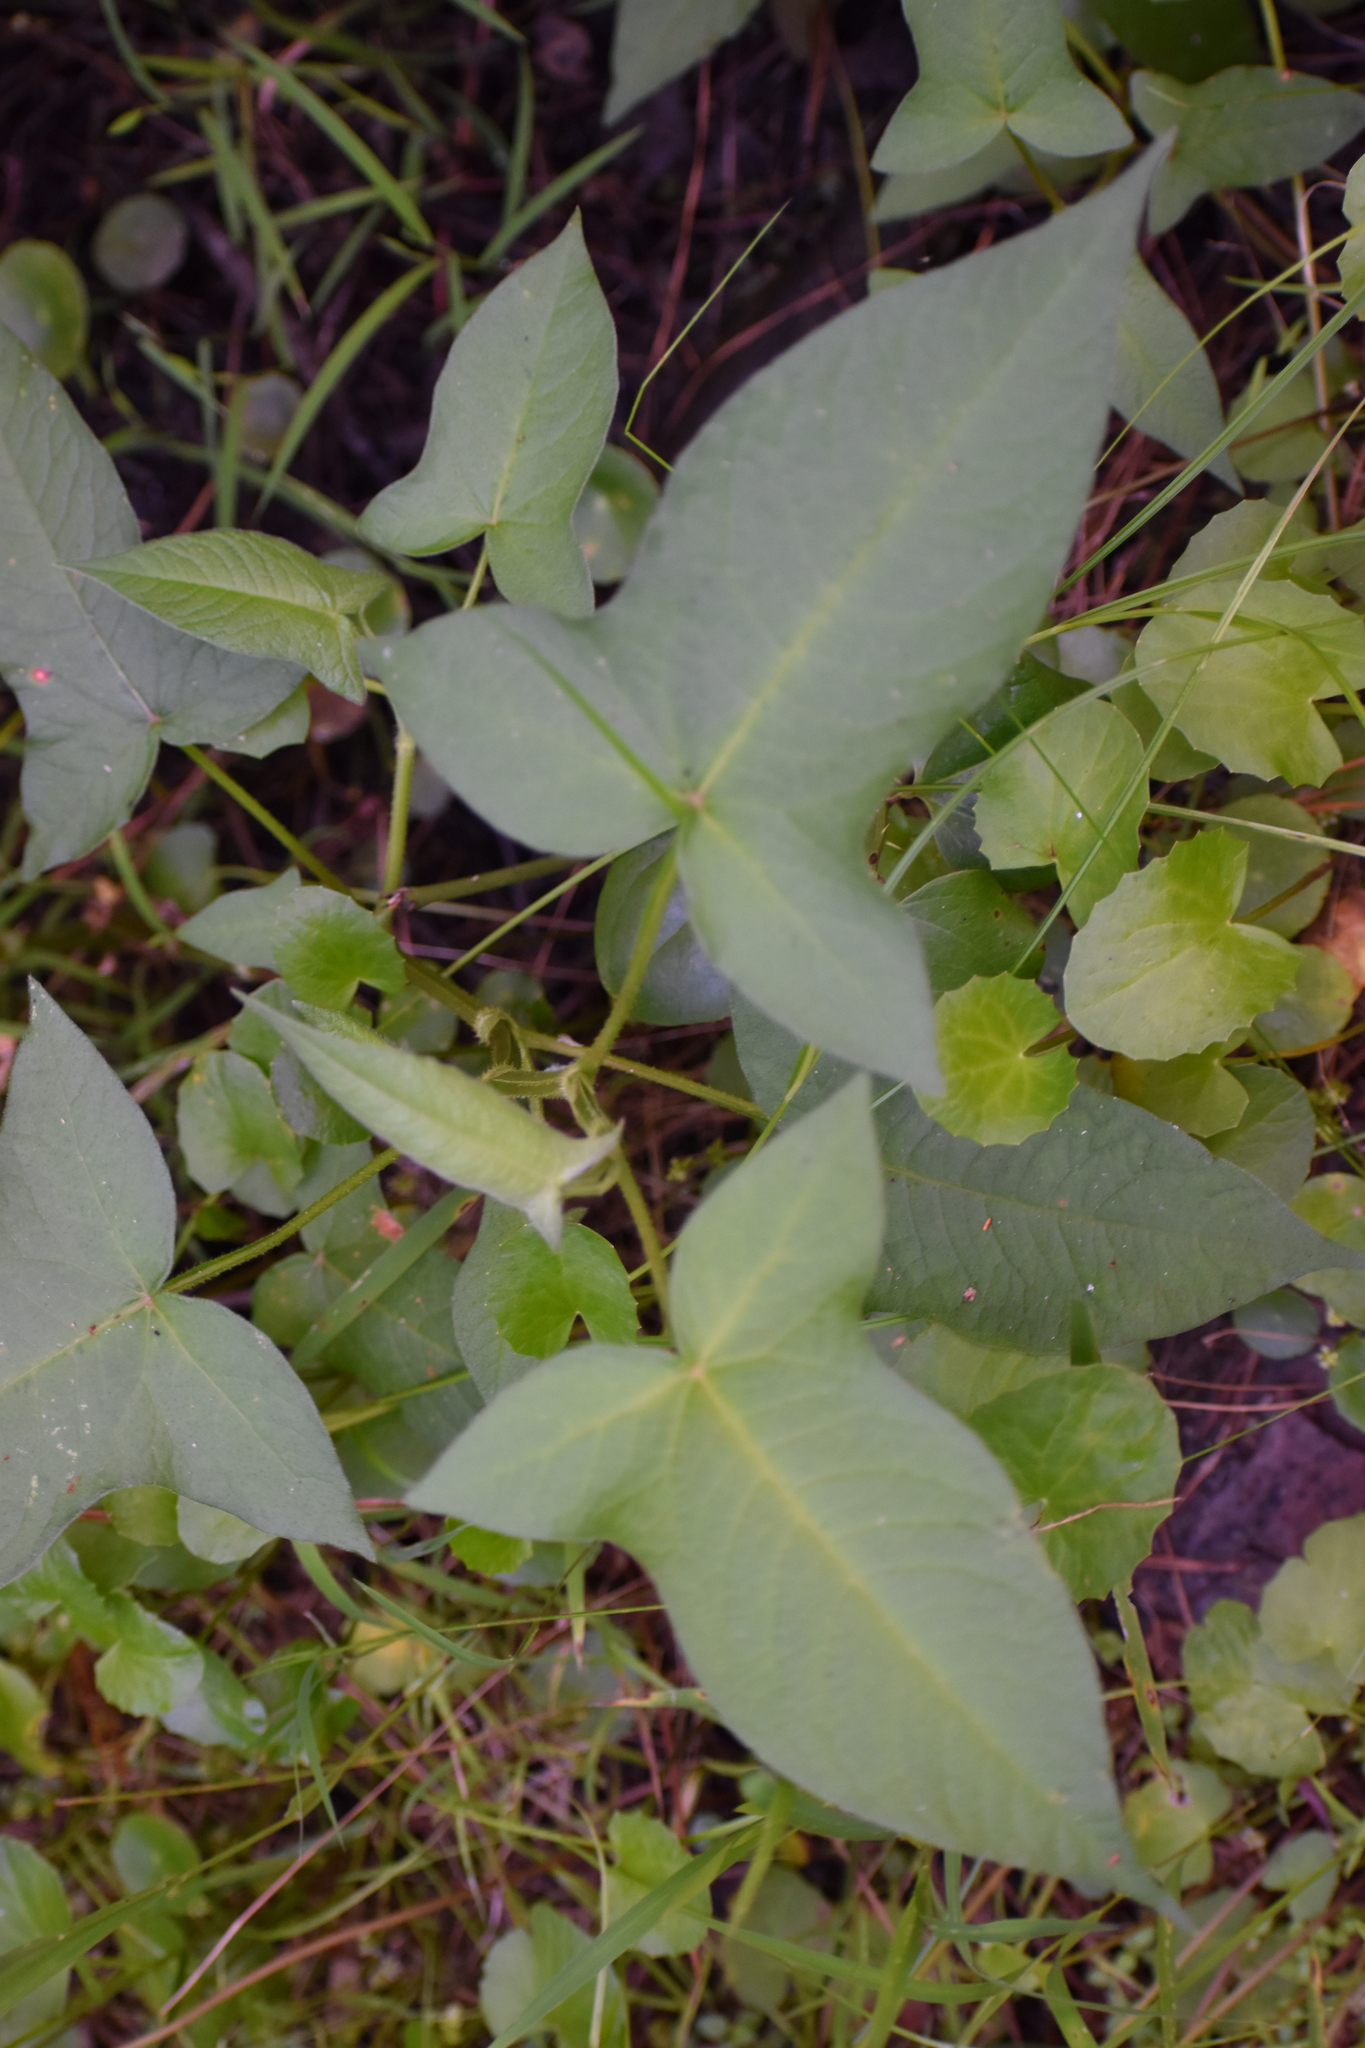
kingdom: Plantae
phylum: Tracheophyta
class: Magnoliopsida
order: Caryophyllales
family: Polygonaceae
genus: Persicaria
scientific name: Persicaria arifolia
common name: Halberd-leaved tear-thumb
